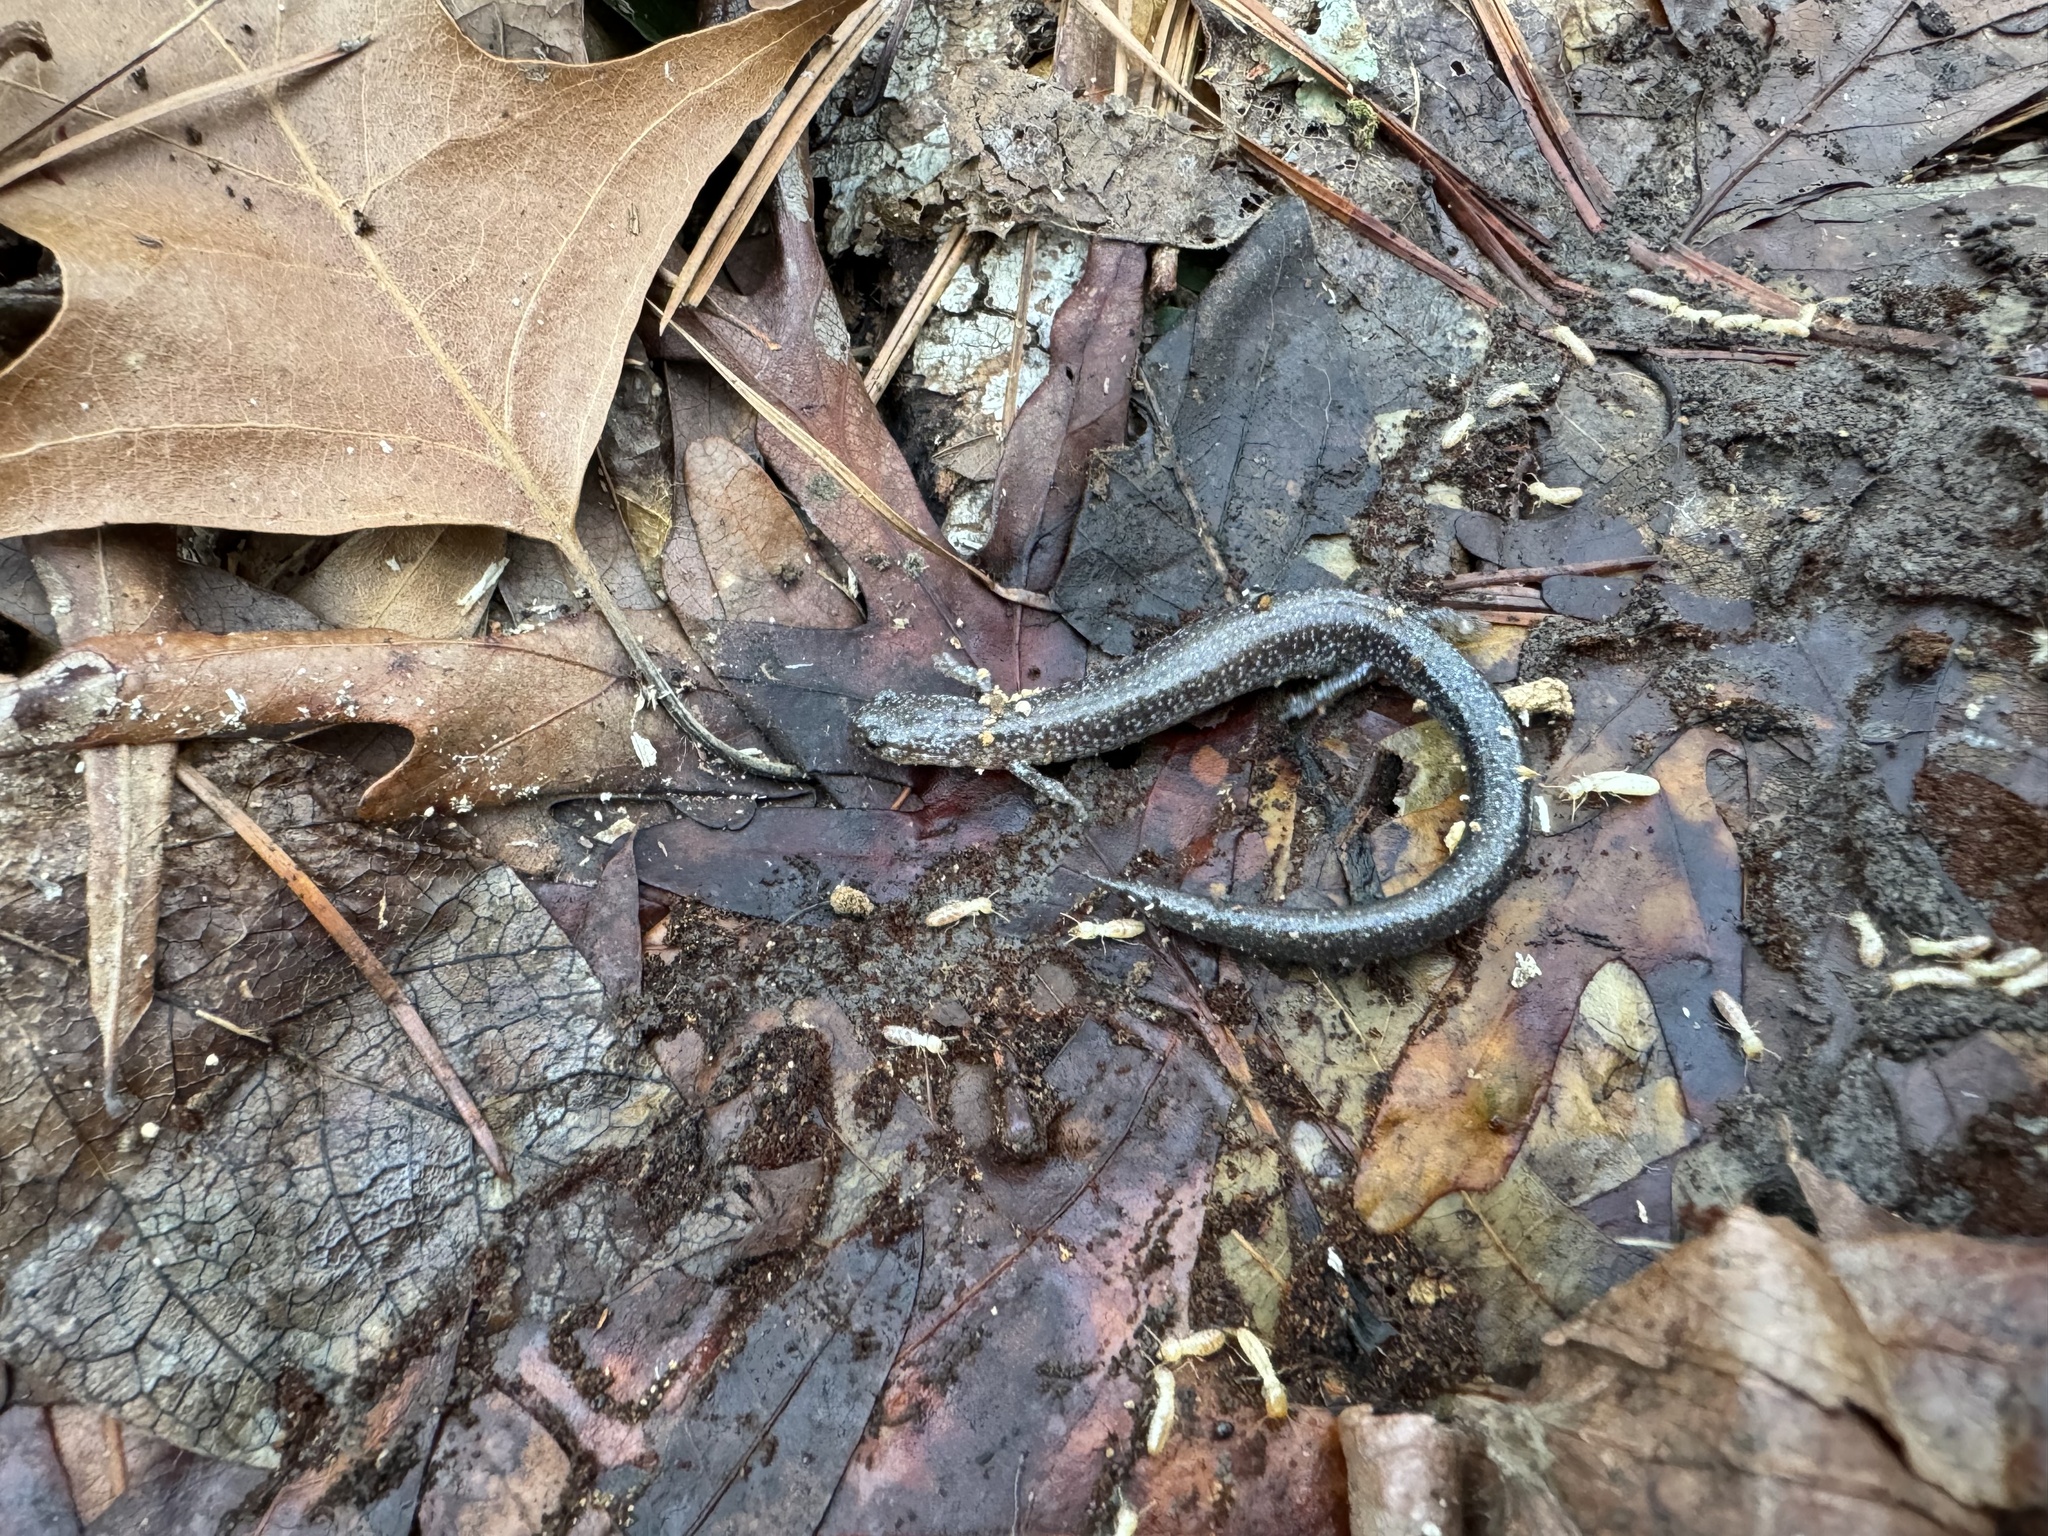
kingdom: Animalia
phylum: Chordata
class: Amphibia
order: Caudata
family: Plethodontidae
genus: Plethodon
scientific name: Plethodon cinereus
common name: Redback salamander
